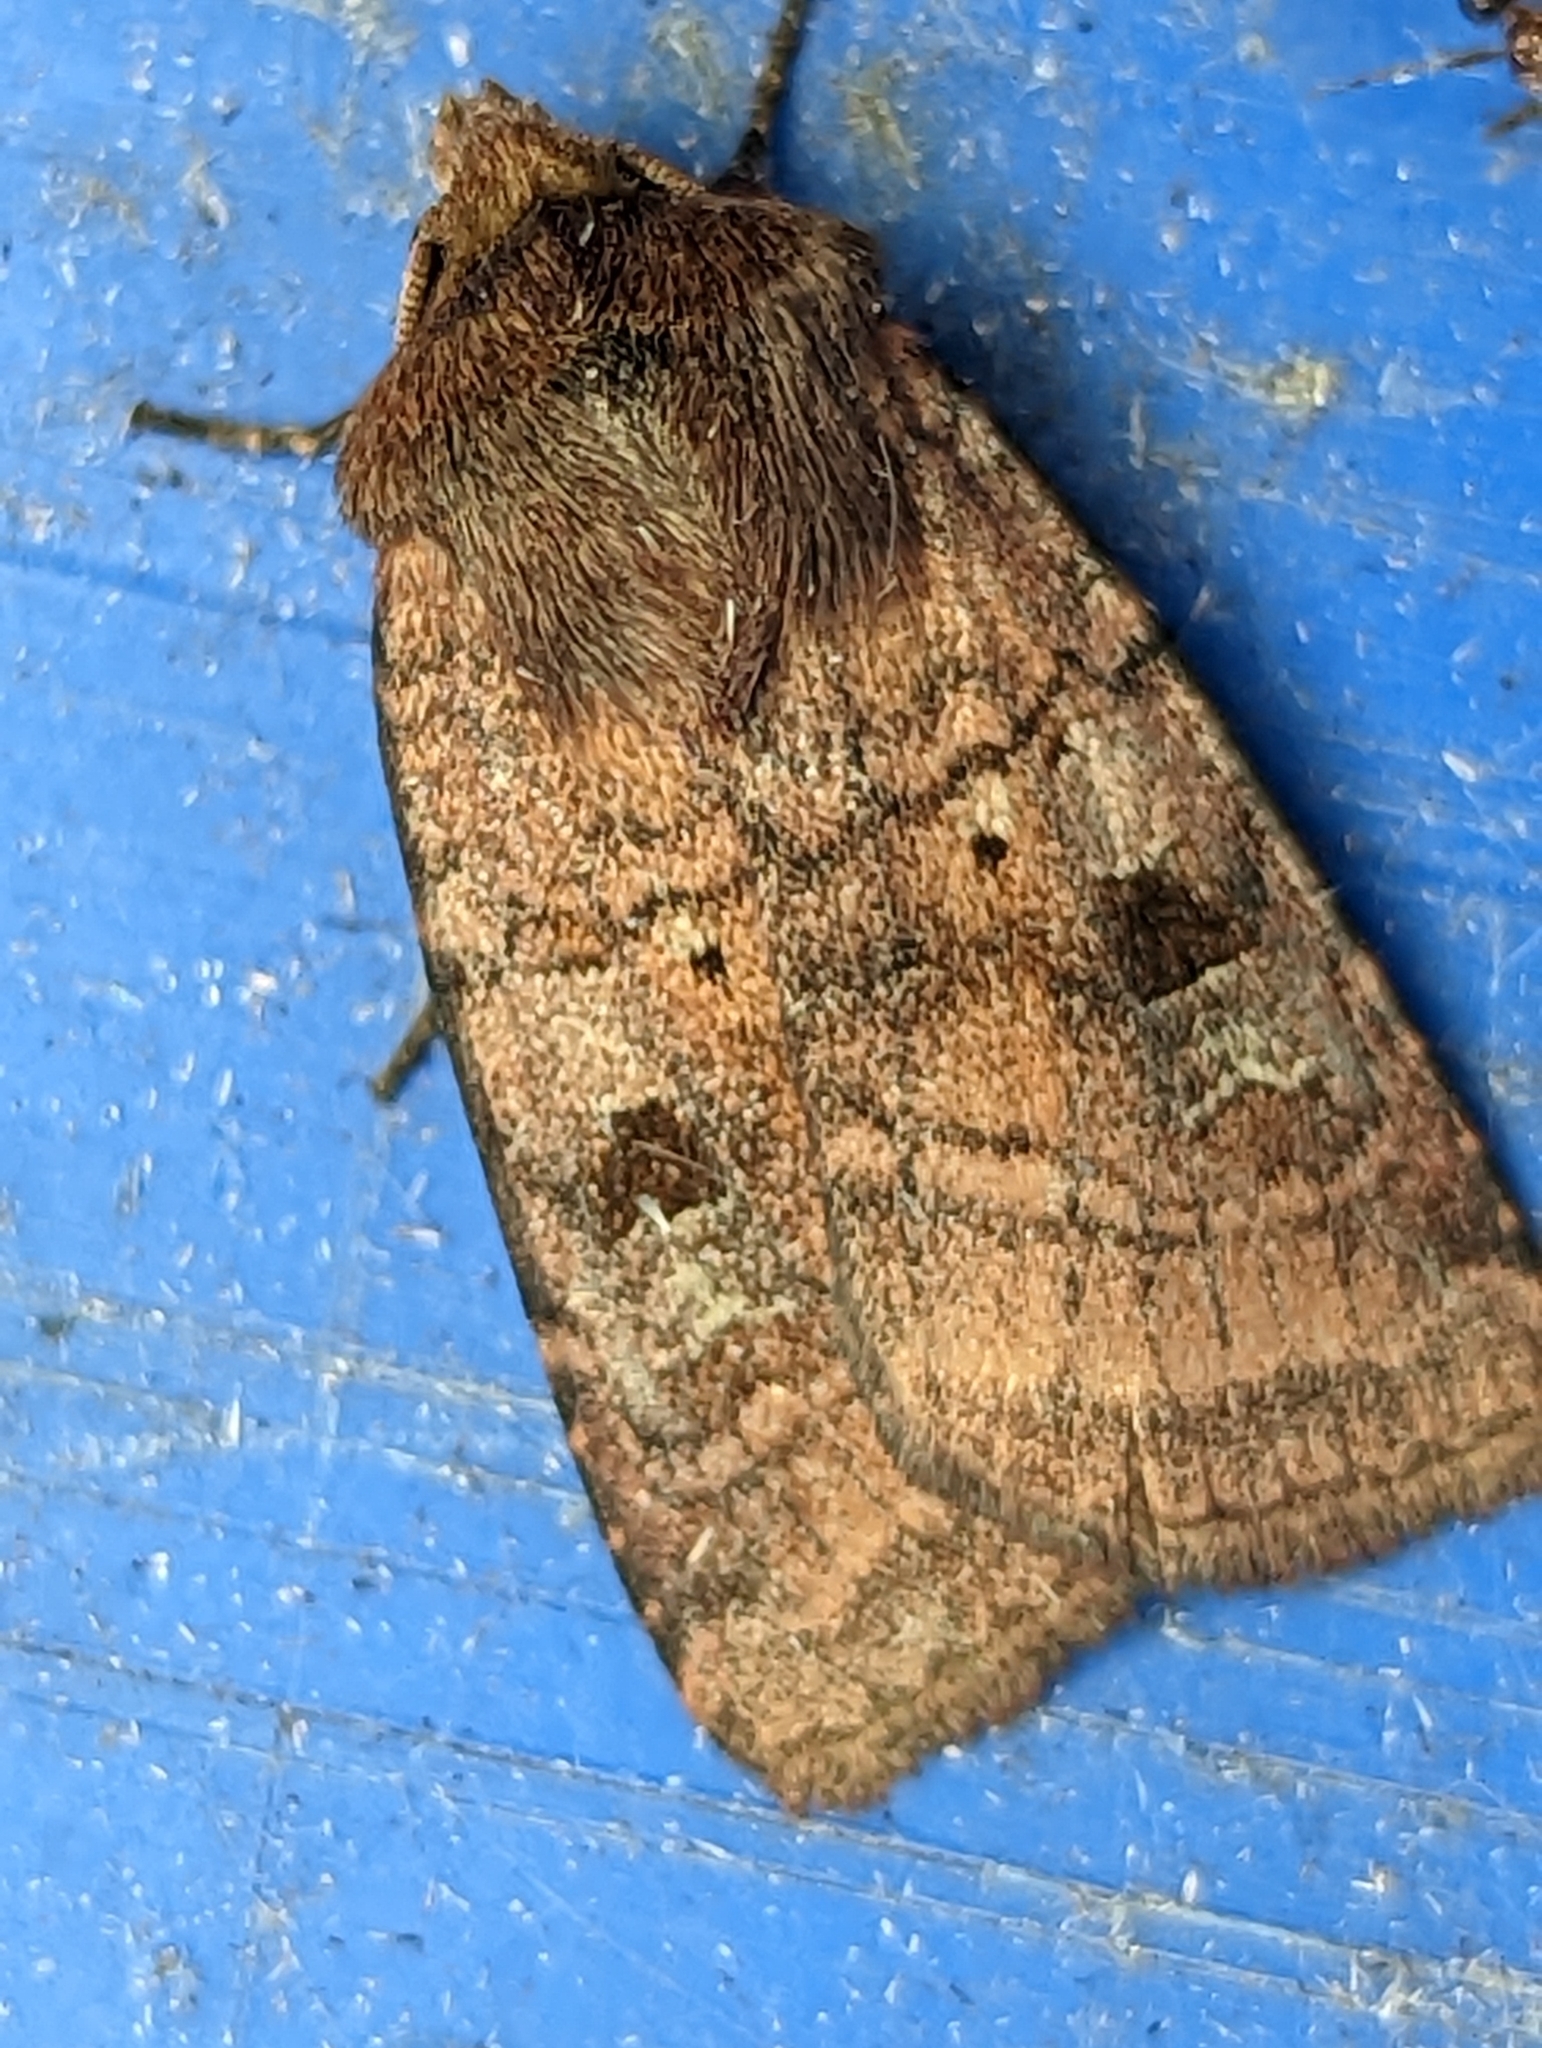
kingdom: Animalia
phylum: Arthropoda
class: Insecta
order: Lepidoptera
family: Noctuidae
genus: Diarsia
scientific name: Diarsia rubi
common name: Small square-spot
